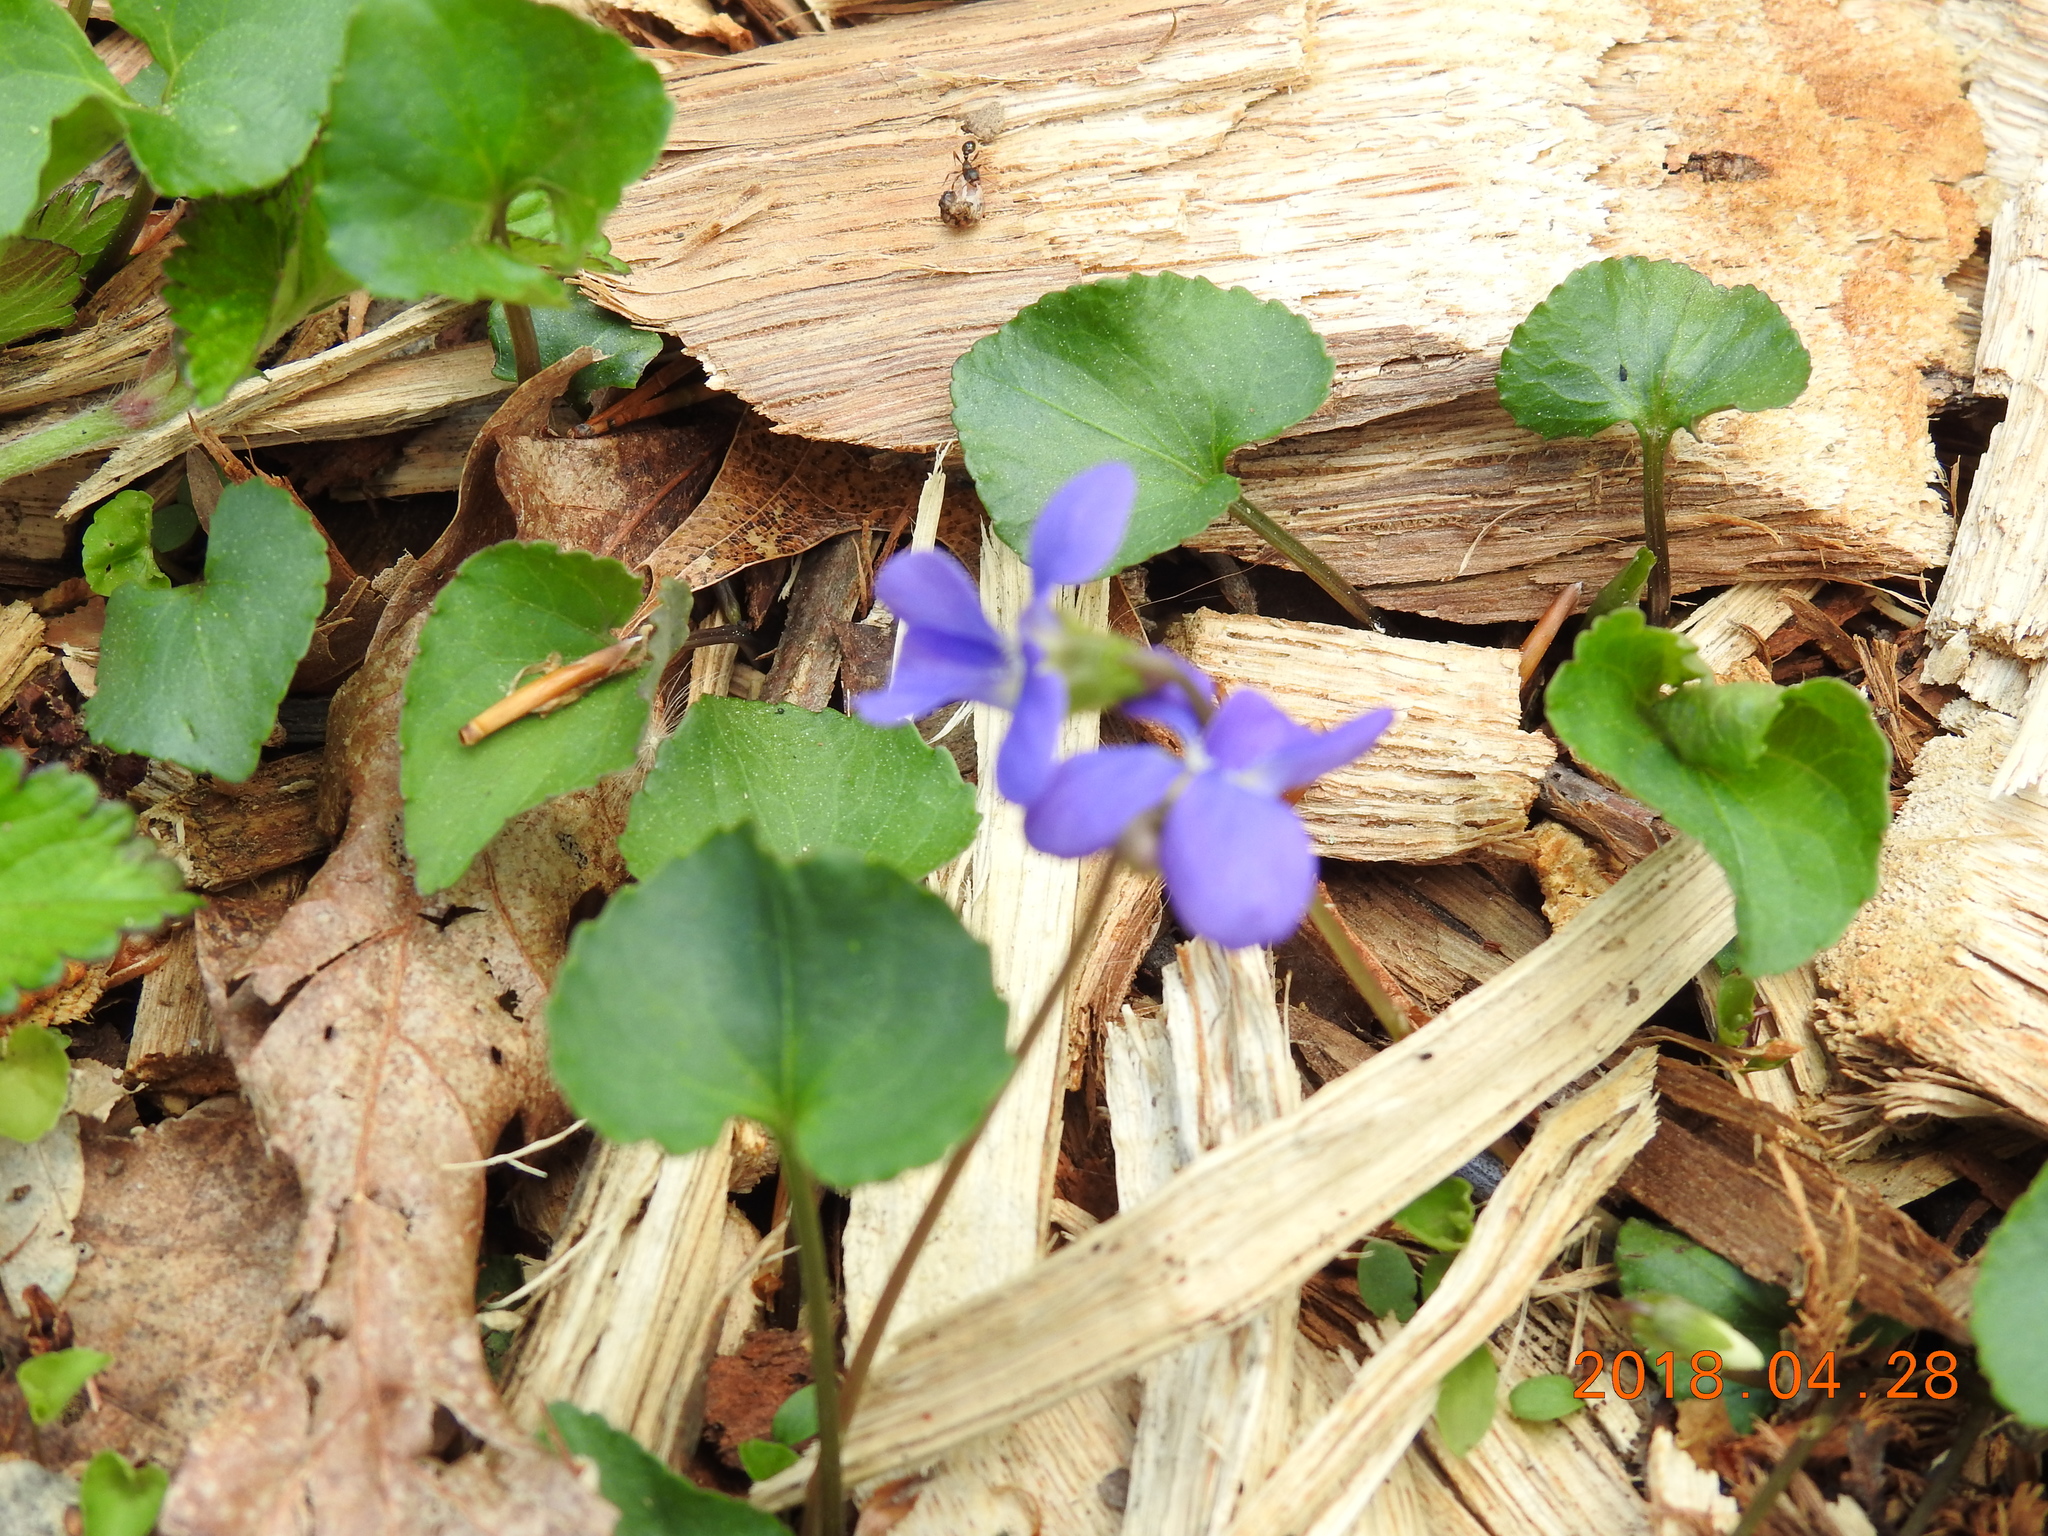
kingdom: Plantae
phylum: Tracheophyta
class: Magnoliopsida
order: Malpighiales
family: Violaceae
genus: Viola
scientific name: Viola sororia
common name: Dooryard violet
